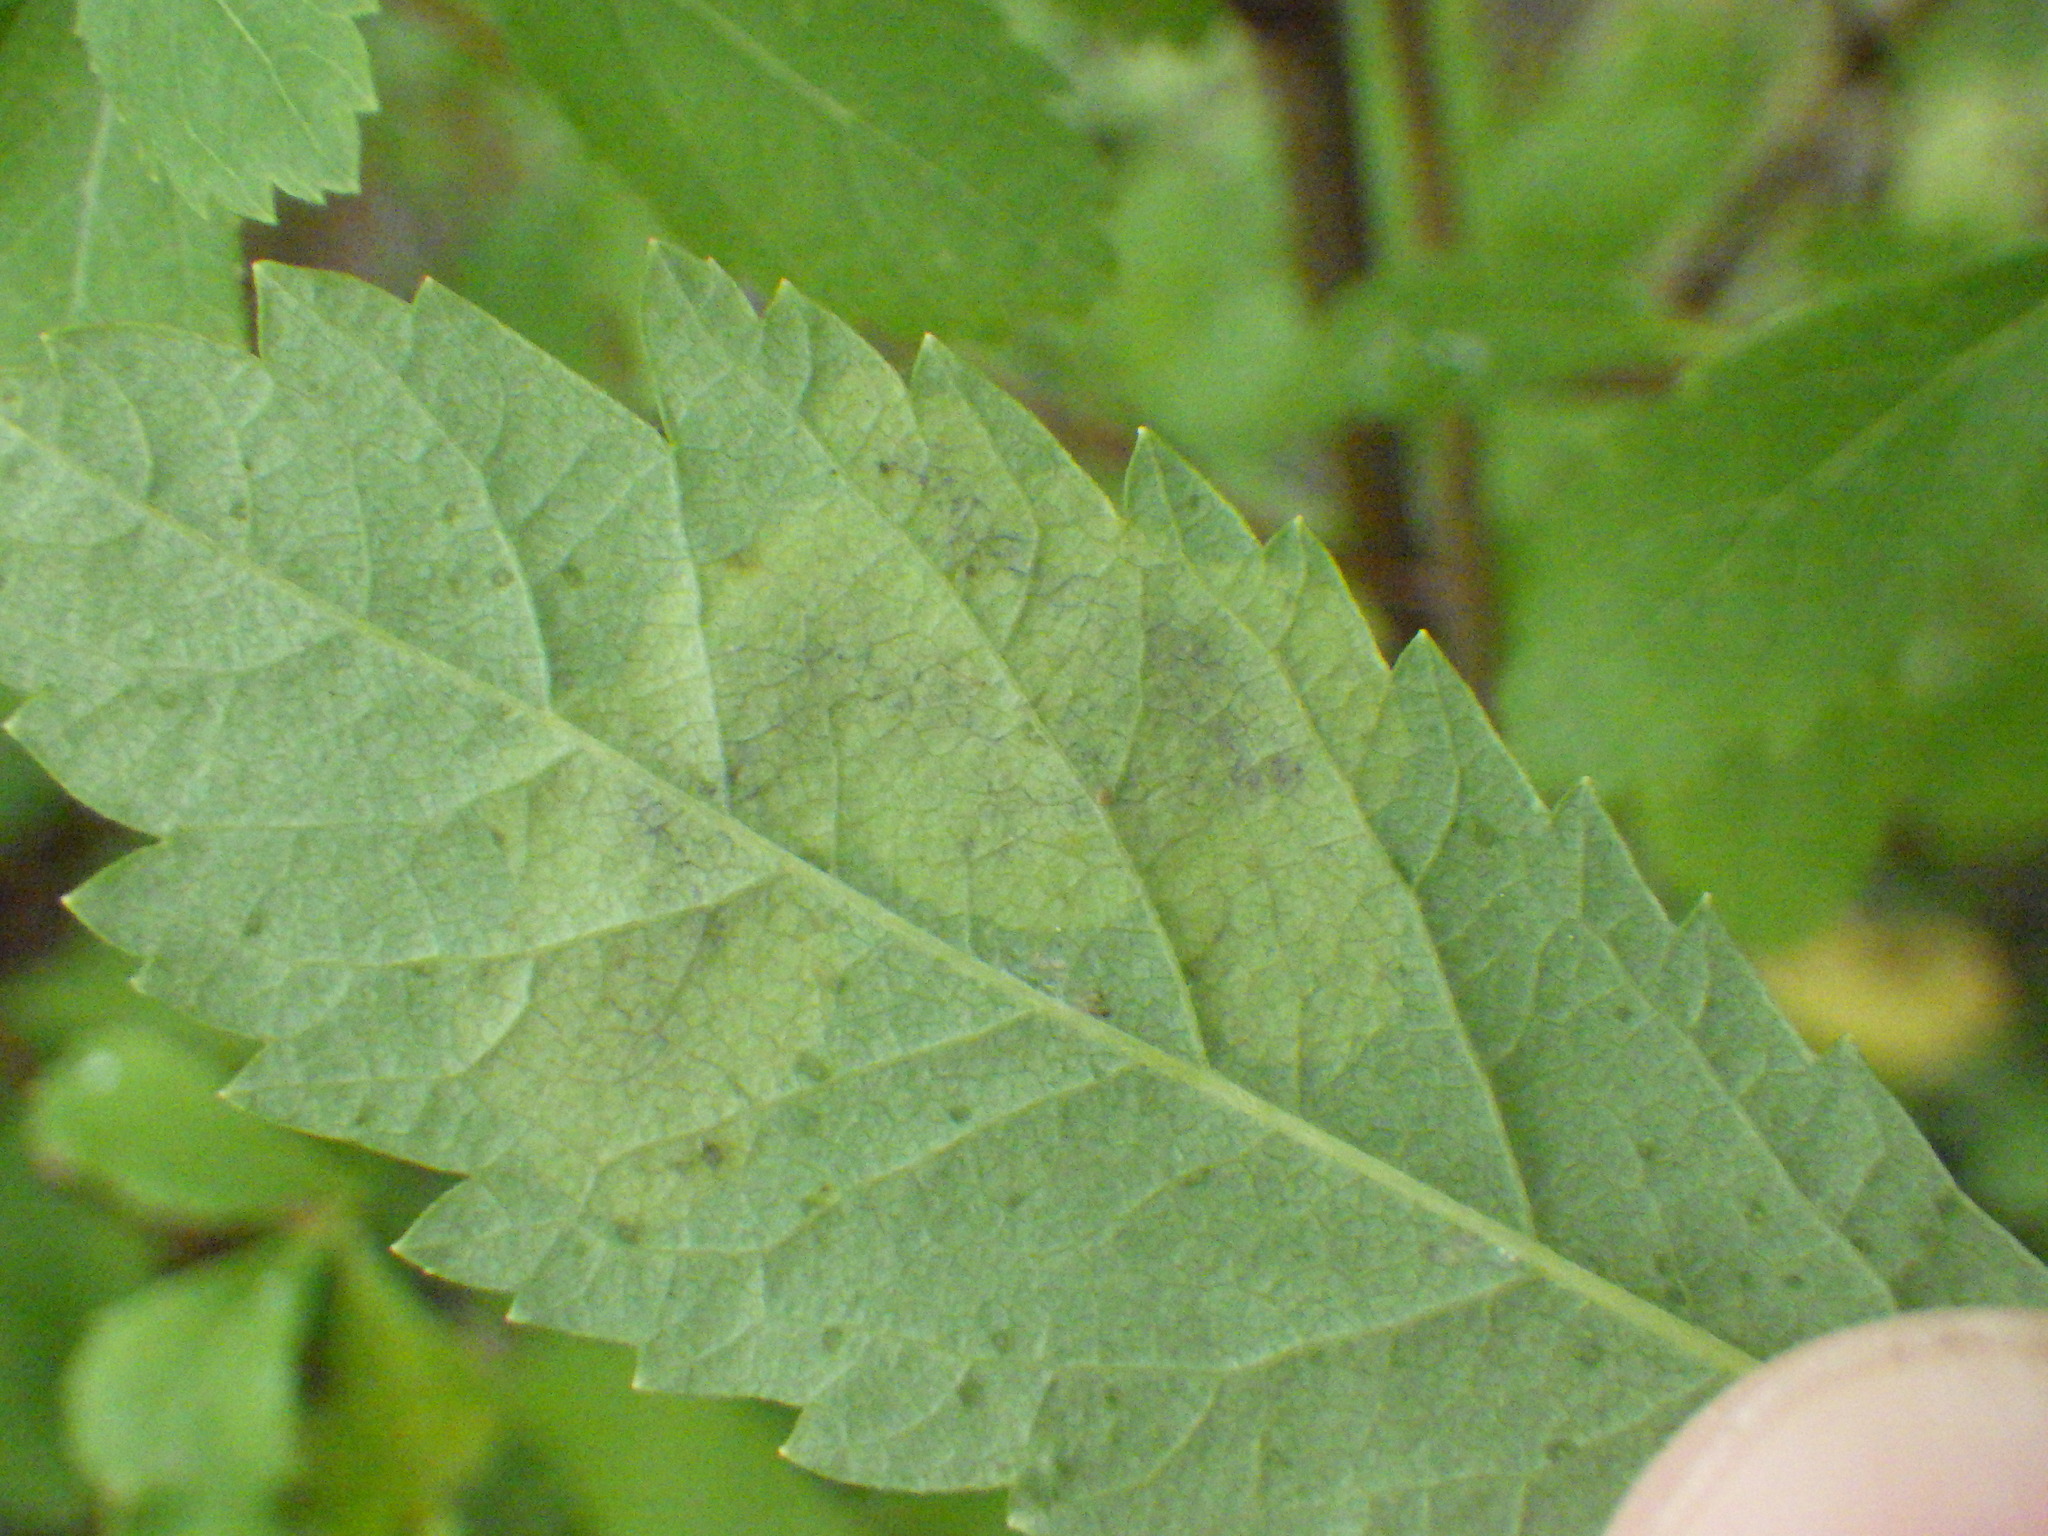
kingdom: Animalia
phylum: Arthropoda
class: Insecta
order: Diptera
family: Agromyzidae
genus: Agromyza
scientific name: Agromyza valdorensis
